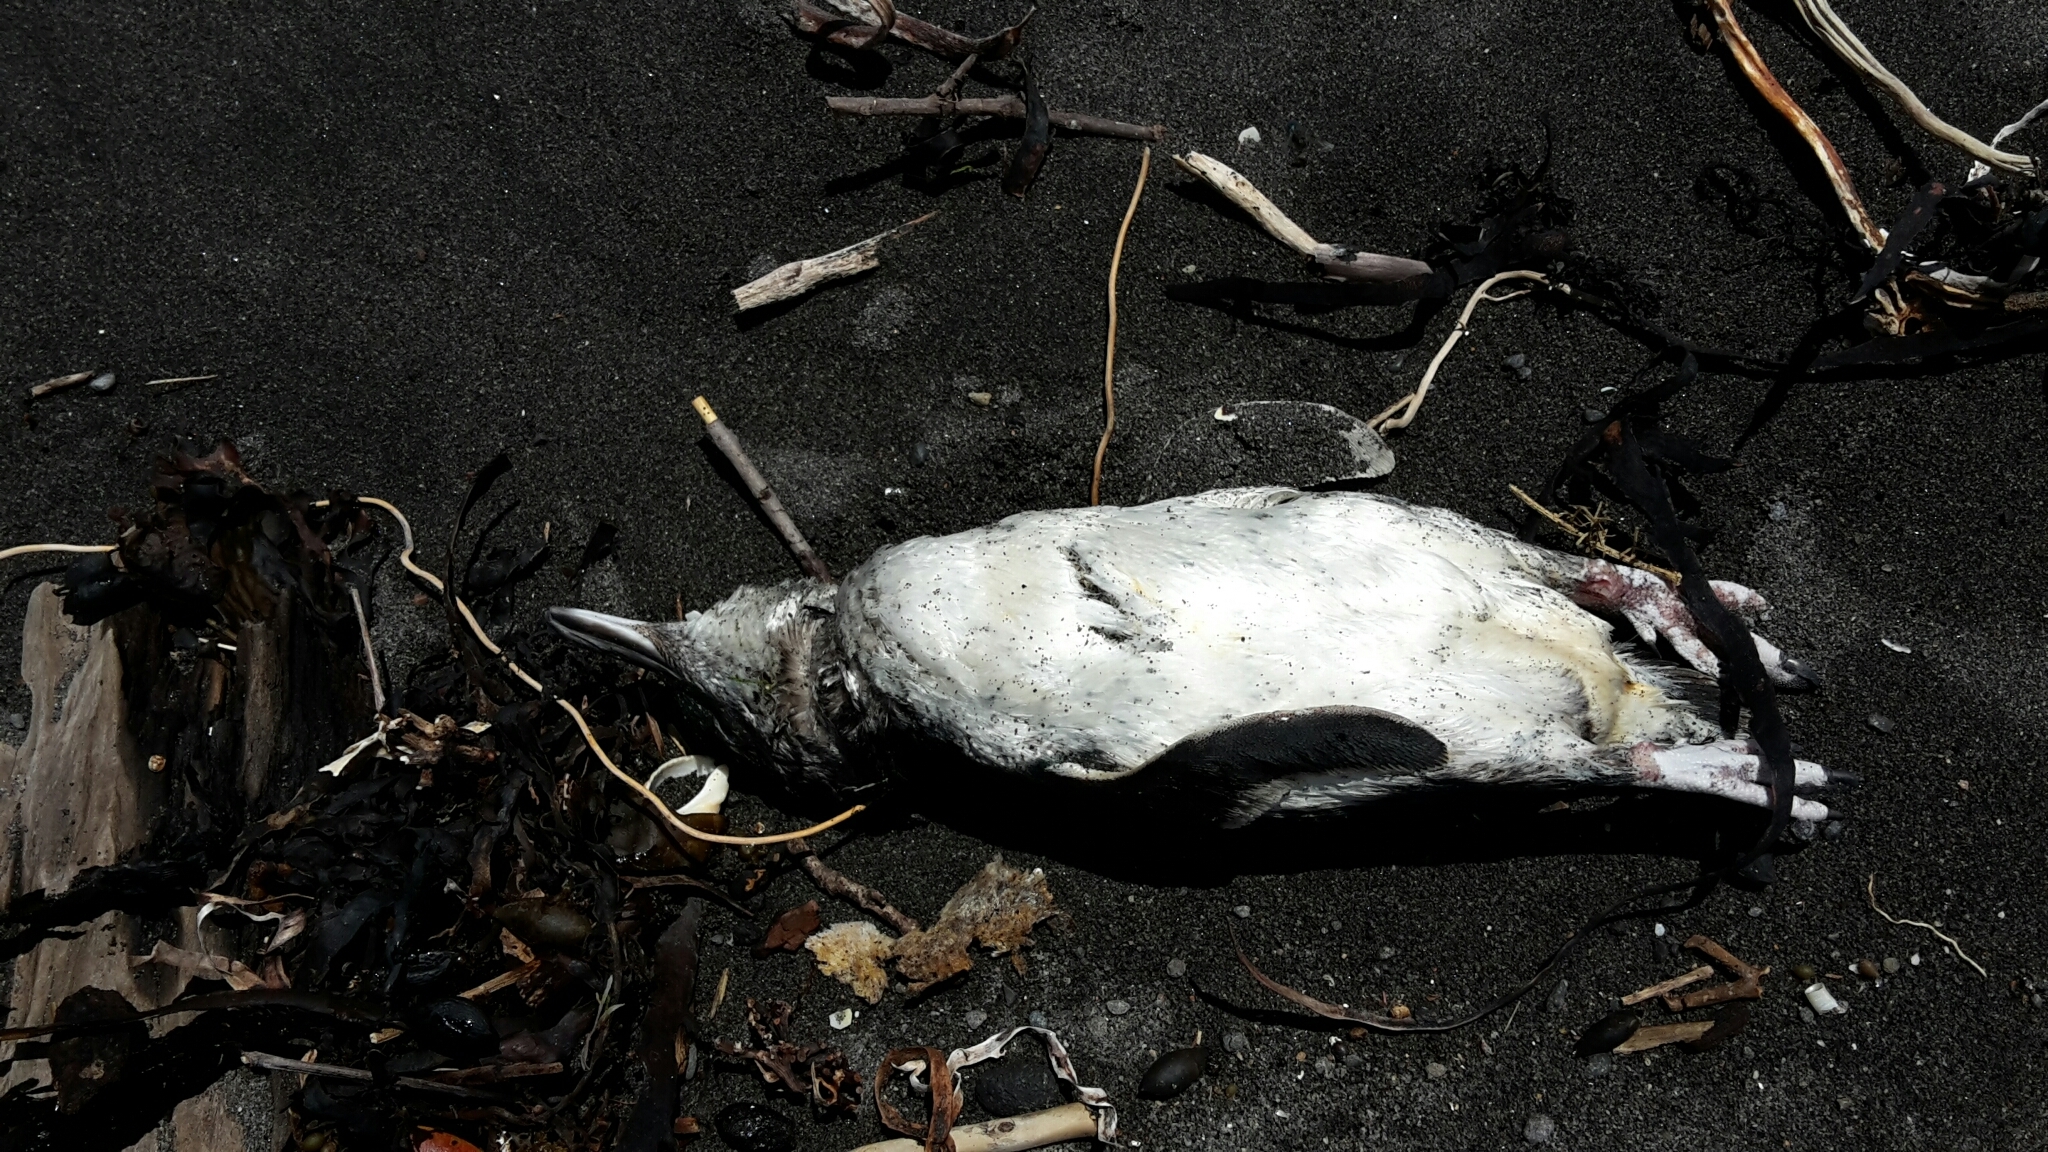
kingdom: Animalia
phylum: Chordata
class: Aves
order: Sphenisciformes
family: Spheniscidae
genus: Eudyptula
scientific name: Eudyptula minor
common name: Little penguin
